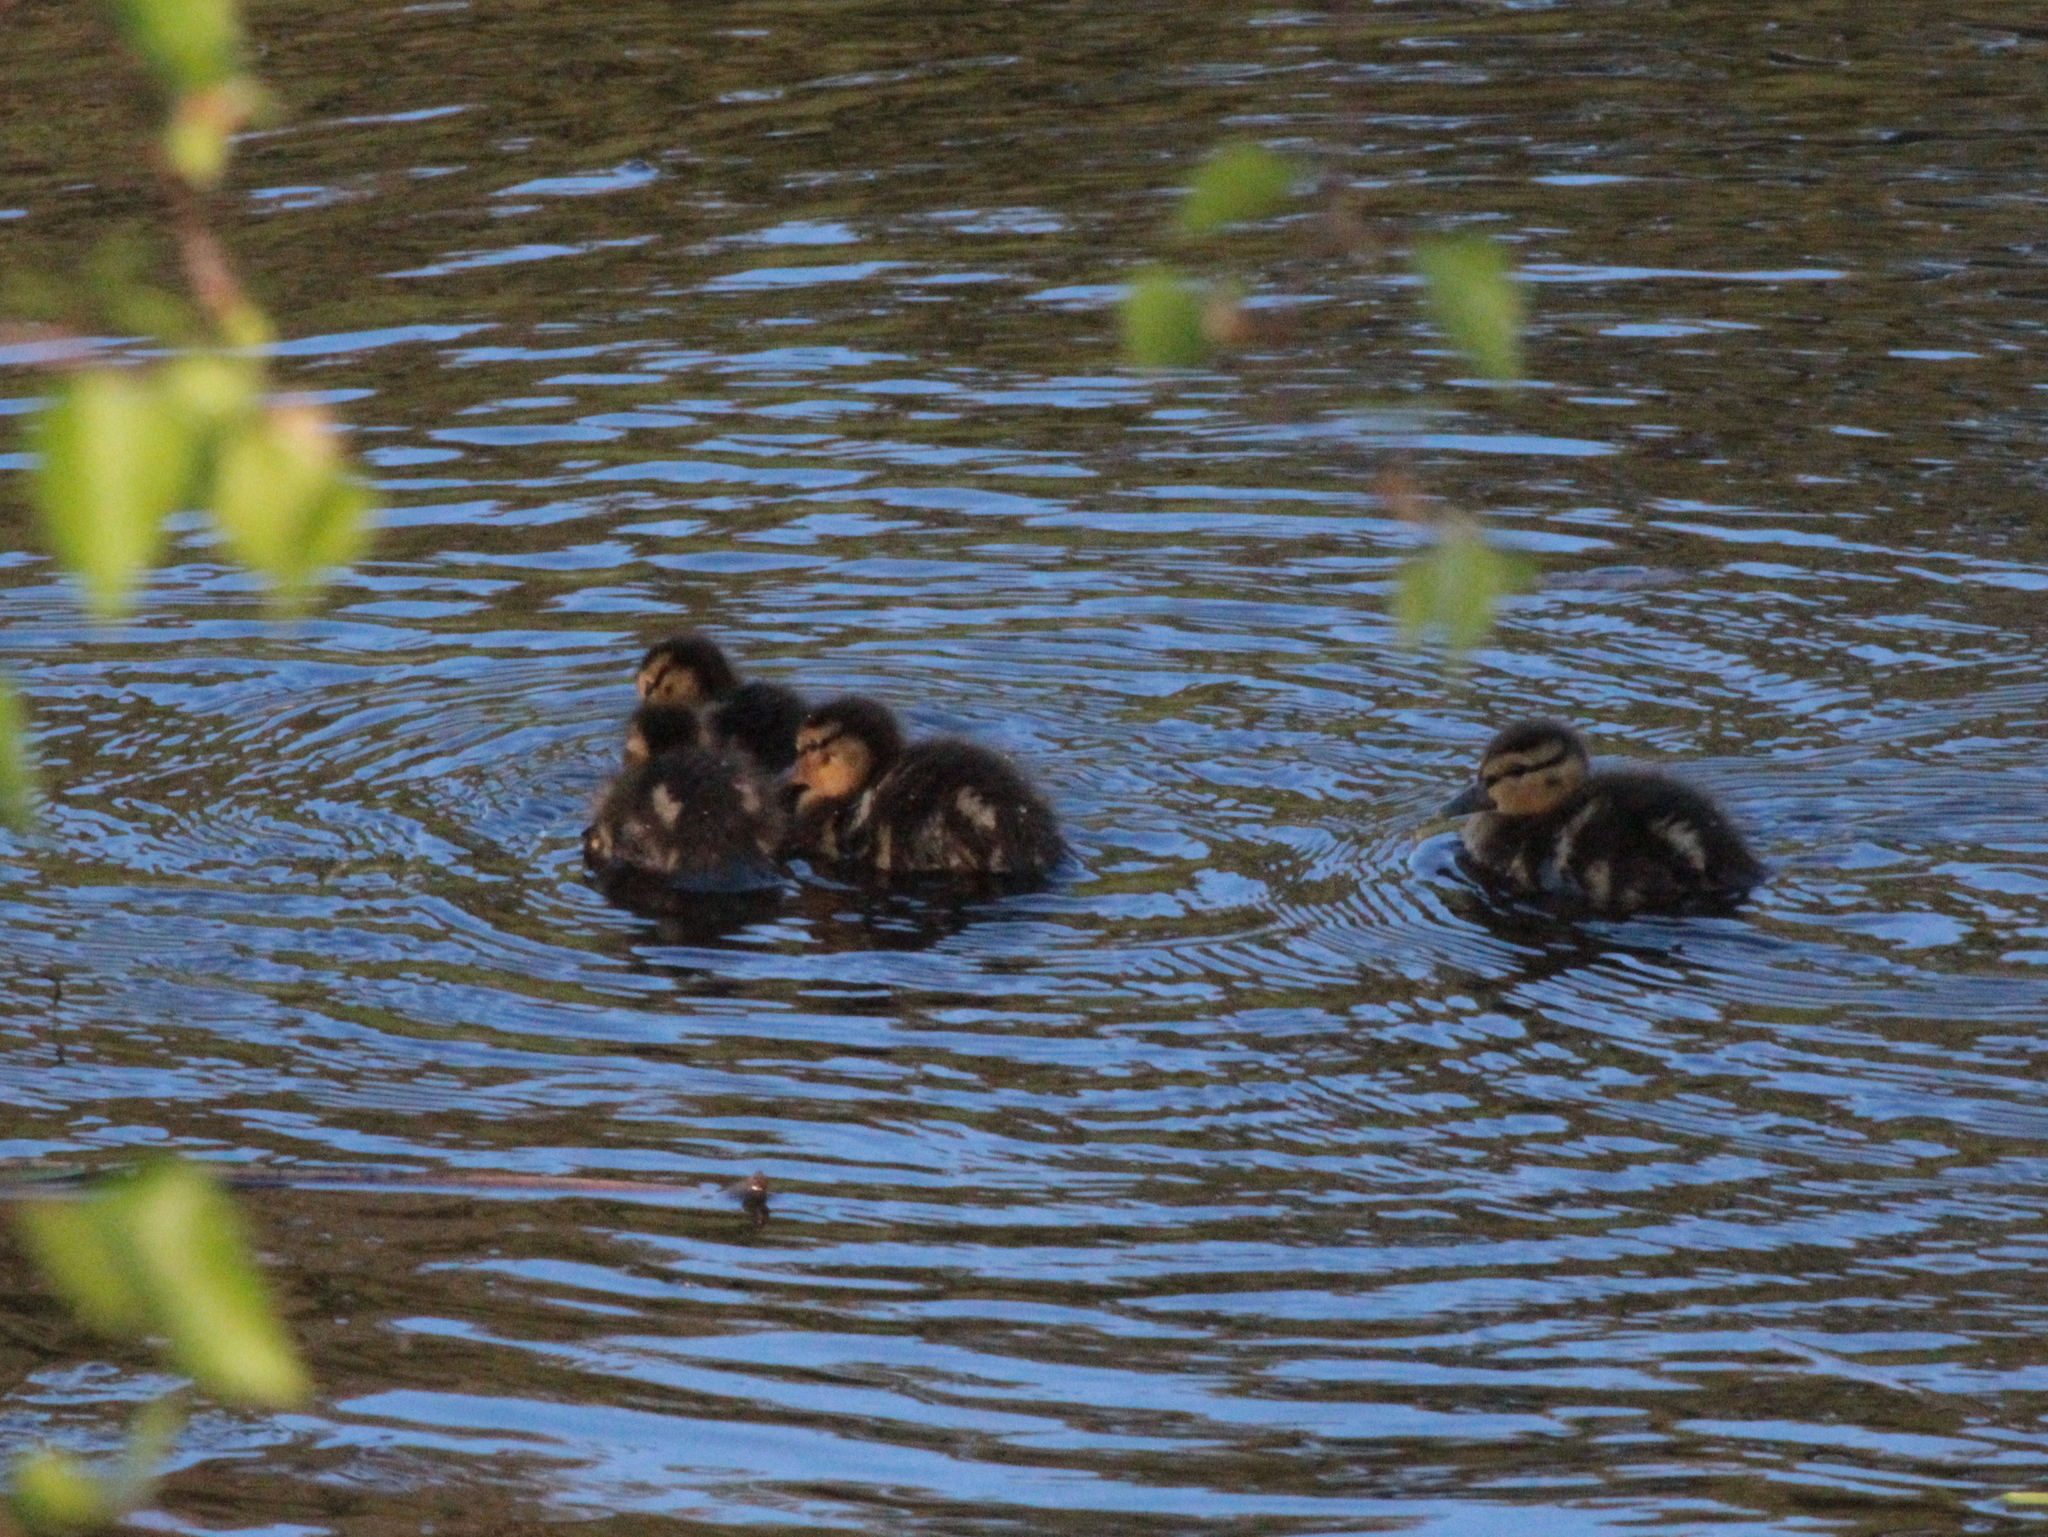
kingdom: Animalia
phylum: Chordata
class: Aves
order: Anseriformes
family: Anatidae
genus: Anas
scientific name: Anas platyrhynchos
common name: Mallard
